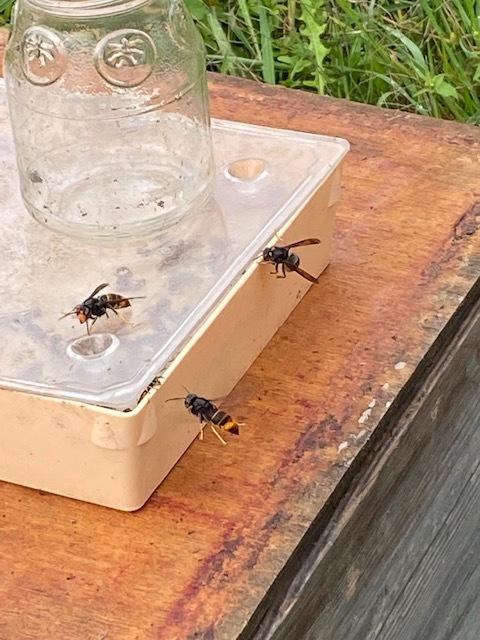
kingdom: Animalia
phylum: Arthropoda
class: Insecta
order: Hymenoptera
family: Vespidae
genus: Vespa
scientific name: Vespa velutina
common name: Asian hornet
